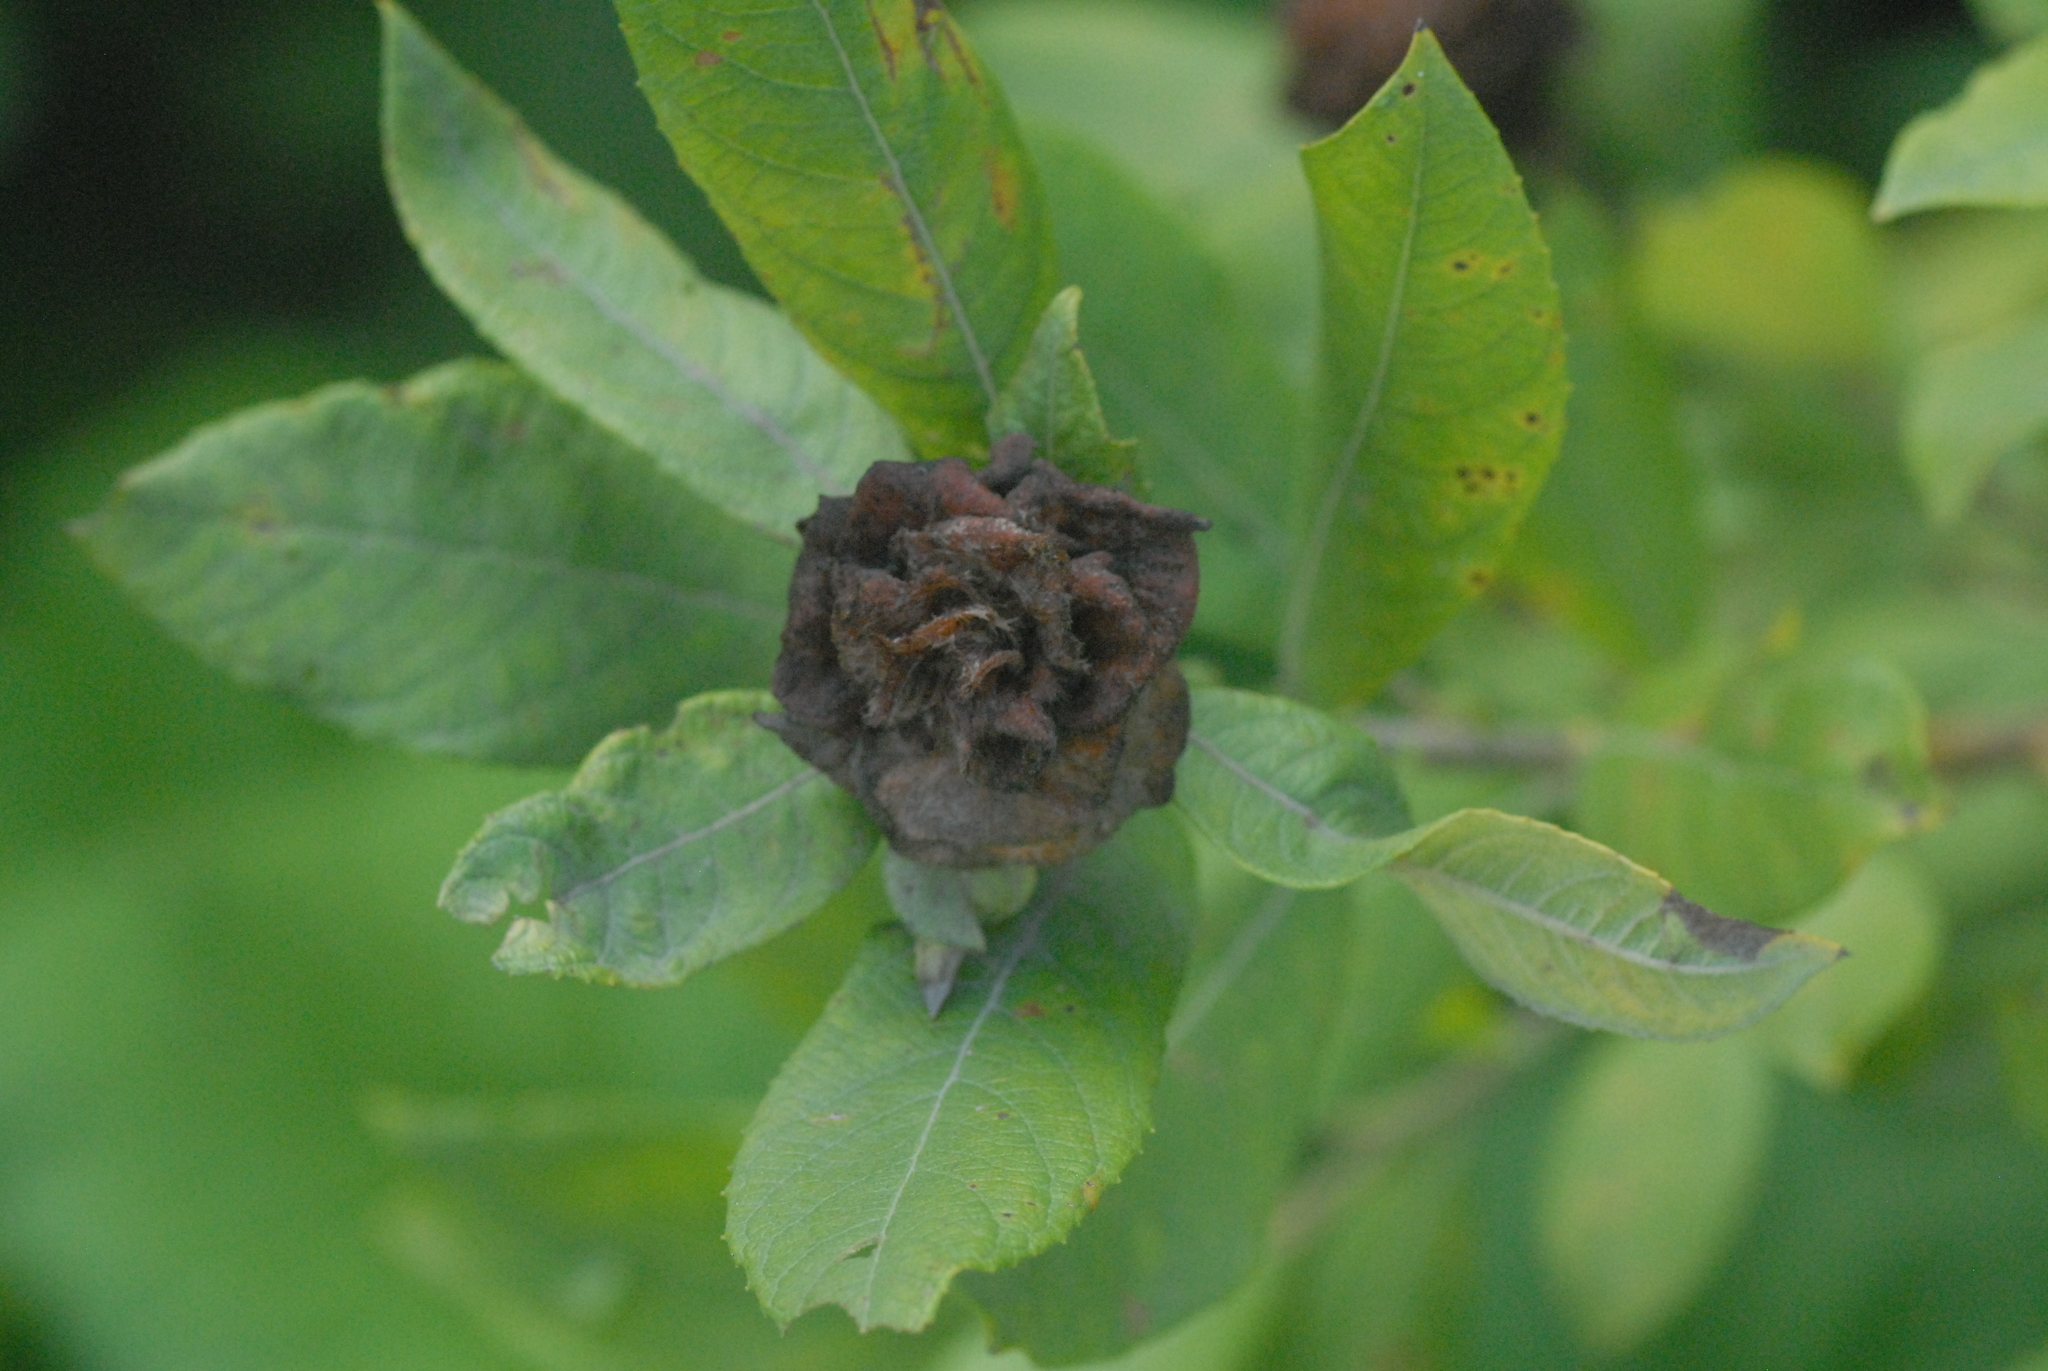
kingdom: Animalia
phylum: Arthropoda
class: Insecta
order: Diptera
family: Cecidomyiidae
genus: Rabdophaga
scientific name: Rabdophaga rosaria
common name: Willow rose gall midge
